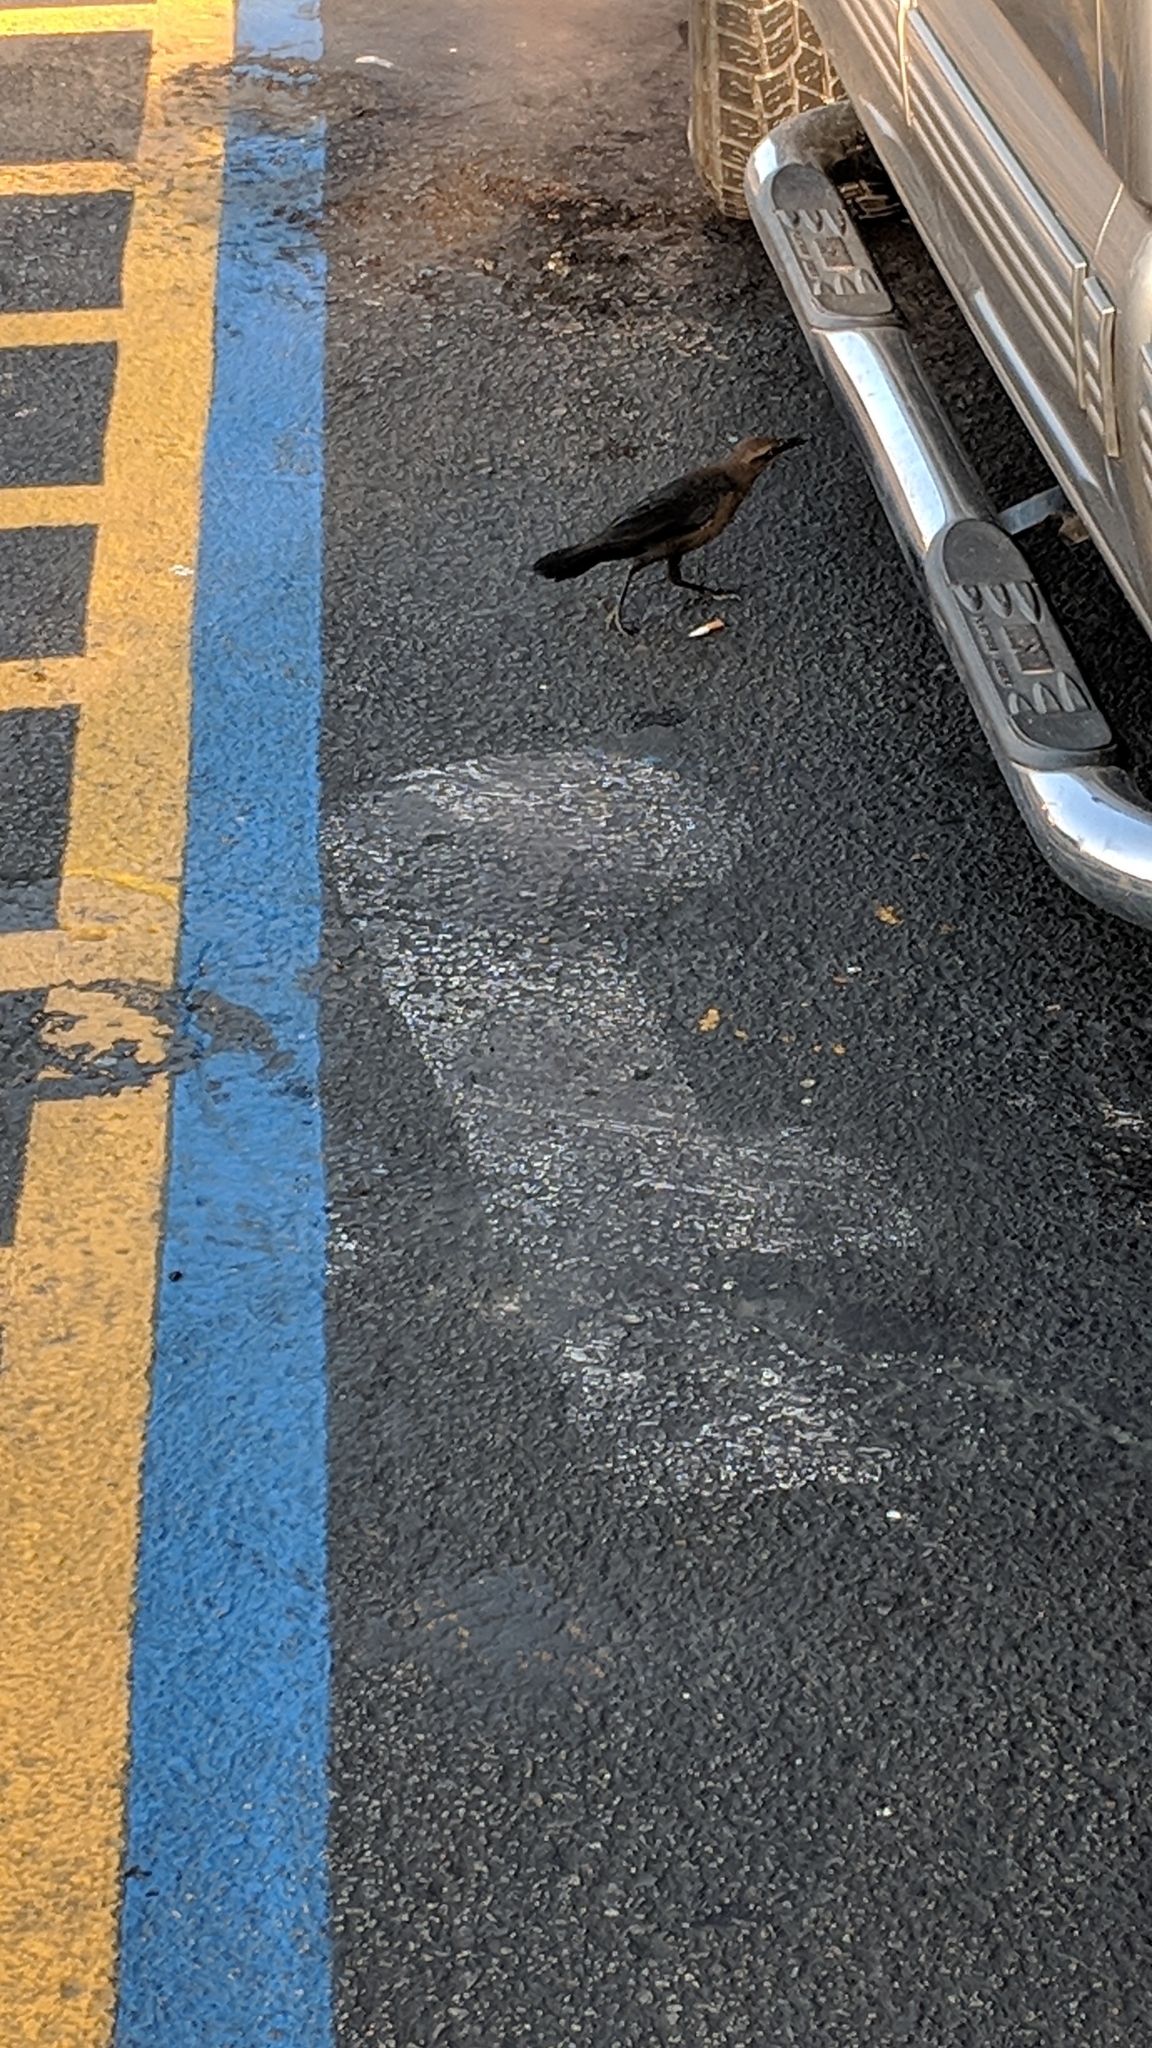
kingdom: Animalia
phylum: Chordata
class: Aves
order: Passeriformes
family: Icteridae
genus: Quiscalus
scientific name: Quiscalus mexicanus
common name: Great-tailed grackle
